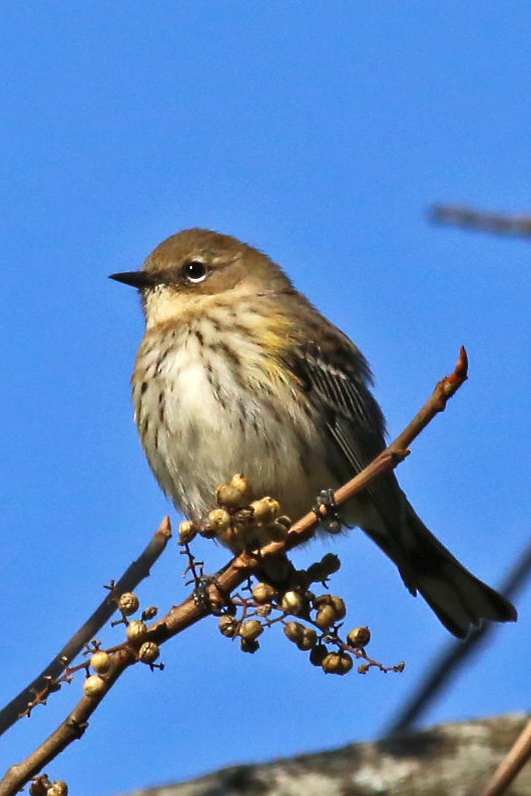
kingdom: Animalia
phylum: Chordata
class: Aves
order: Passeriformes
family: Parulidae
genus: Setophaga
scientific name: Setophaga coronata
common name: Myrtle warbler
